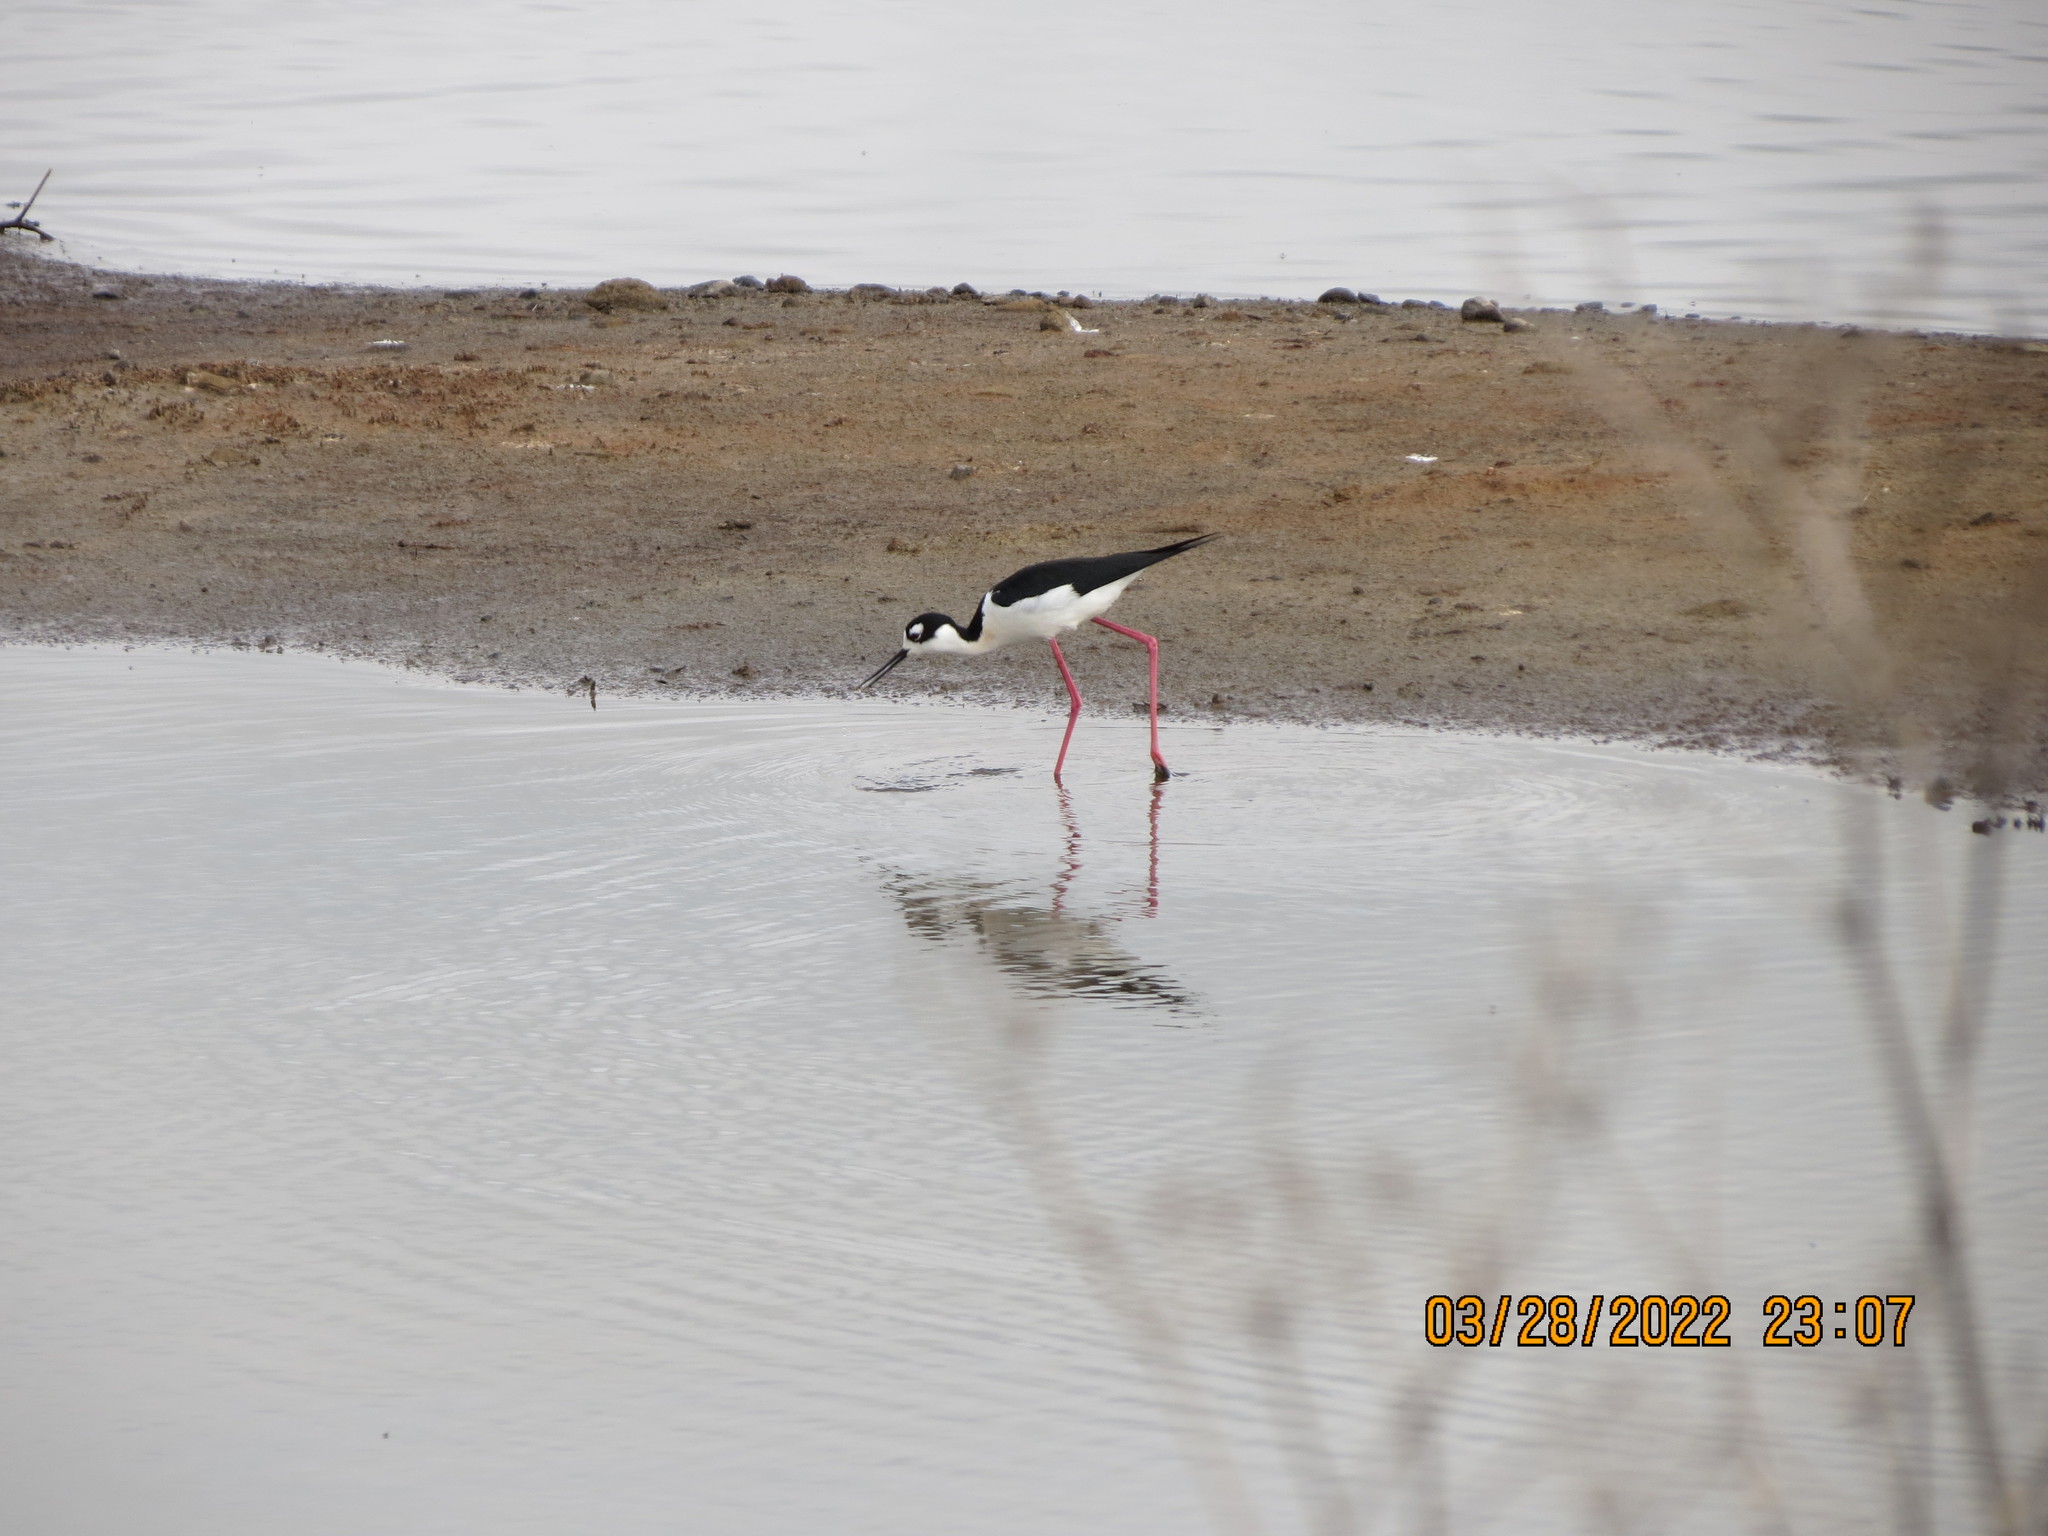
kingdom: Animalia
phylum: Chordata
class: Aves
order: Charadriiformes
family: Recurvirostridae
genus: Himantopus
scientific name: Himantopus mexicanus
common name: Black-necked stilt
